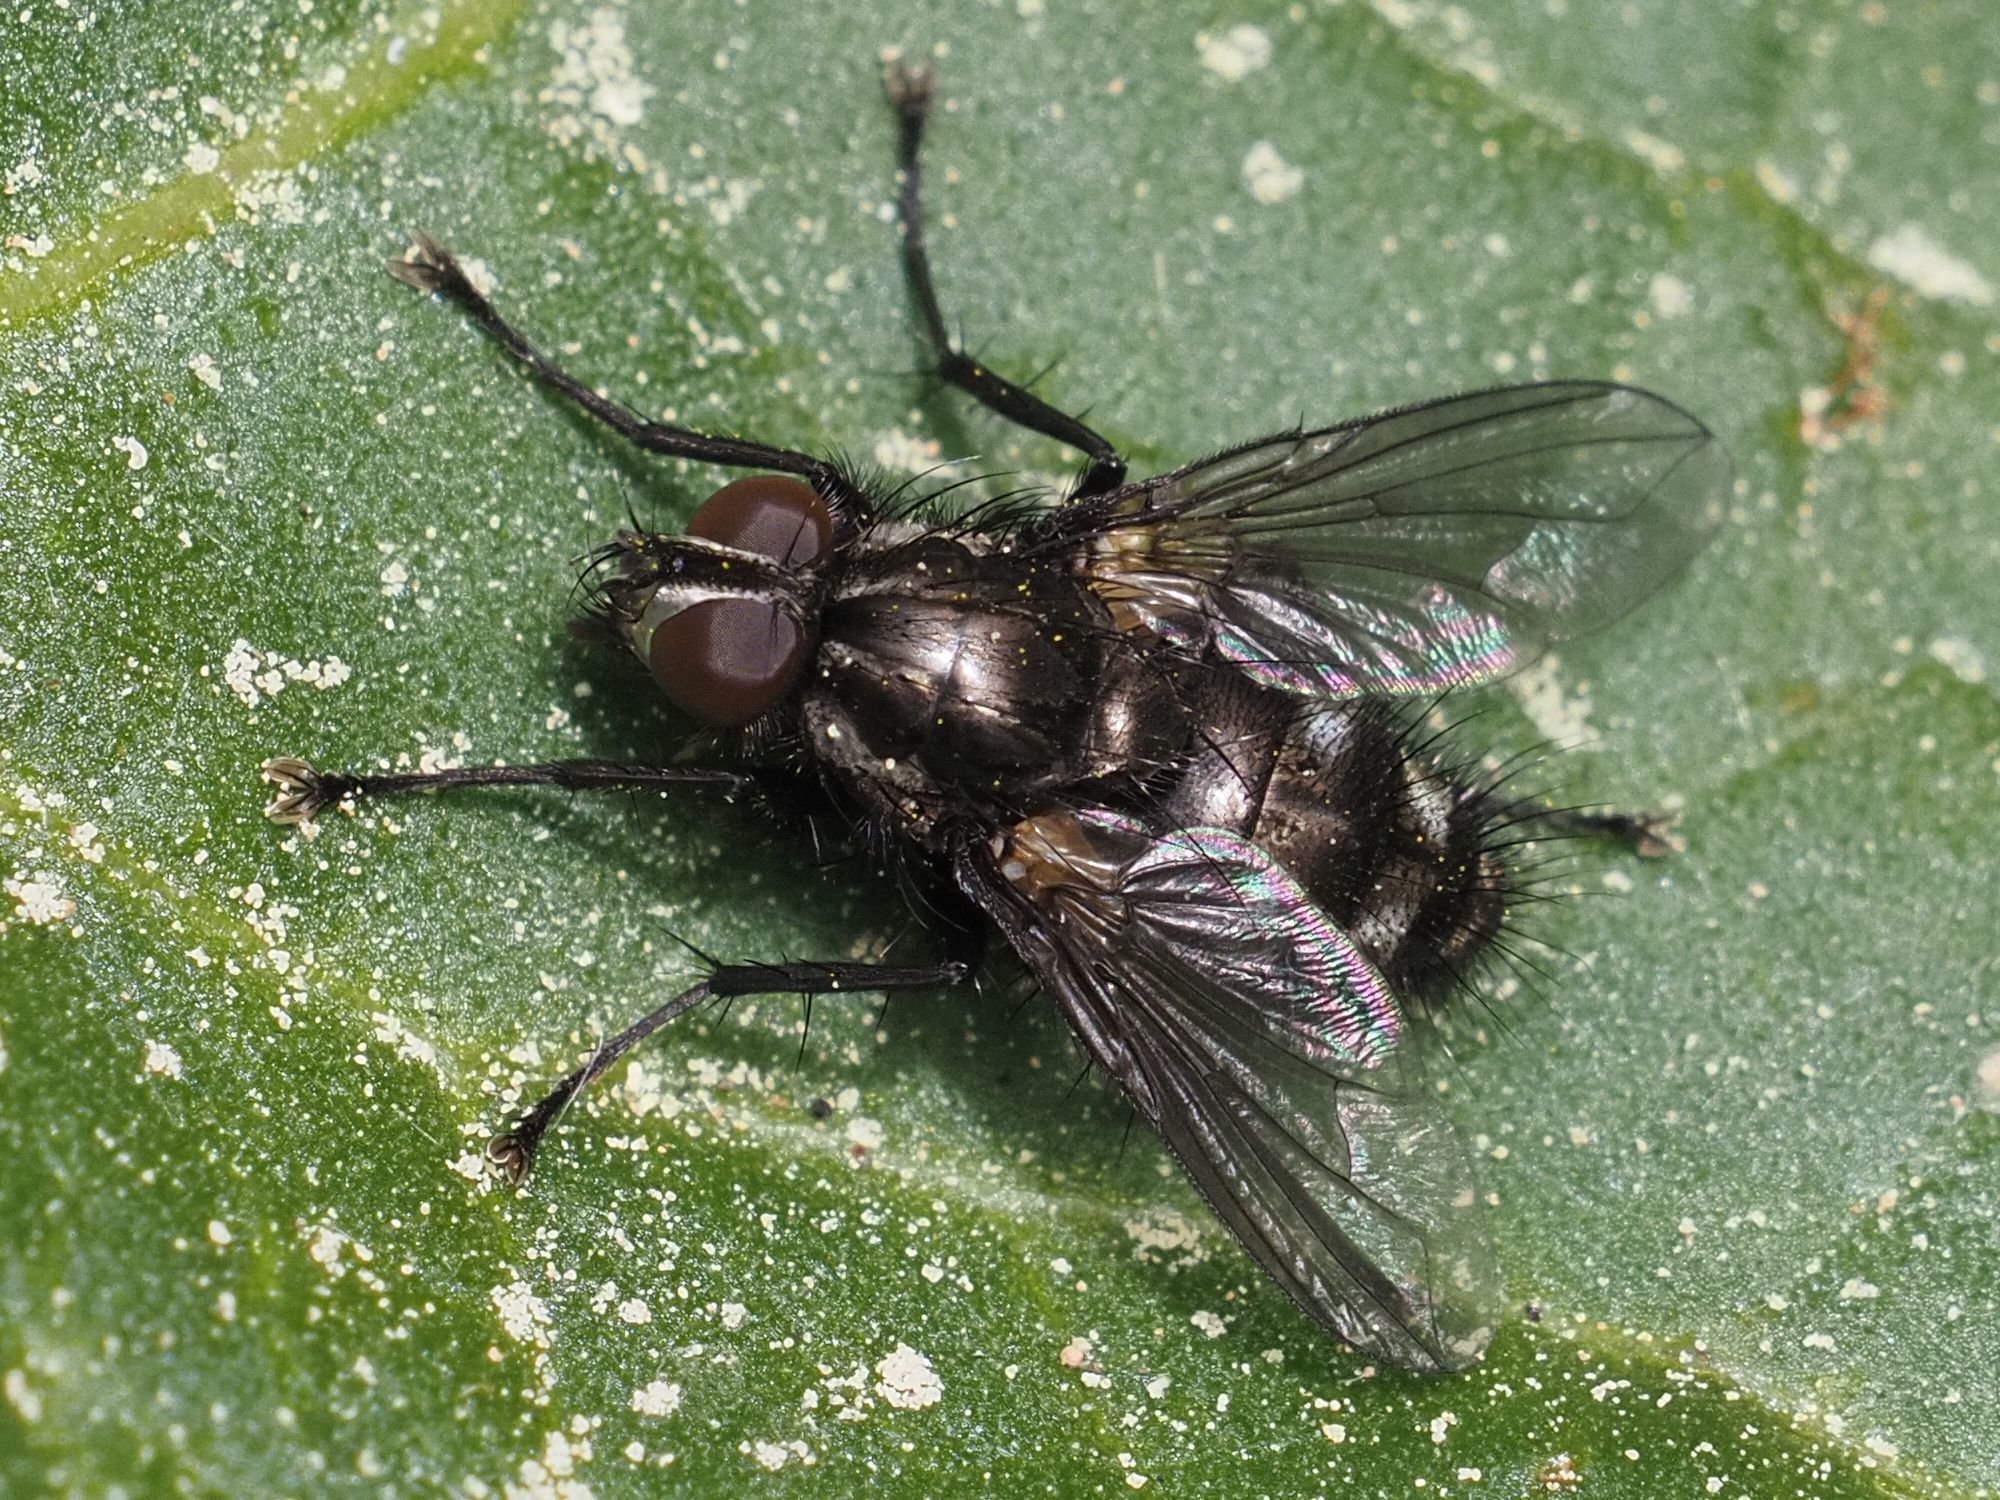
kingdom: Animalia
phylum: Arthropoda
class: Insecta
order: Diptera
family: Calliphoridae
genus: Rhinomorinia
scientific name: Rhinomorinia sarcophagina
